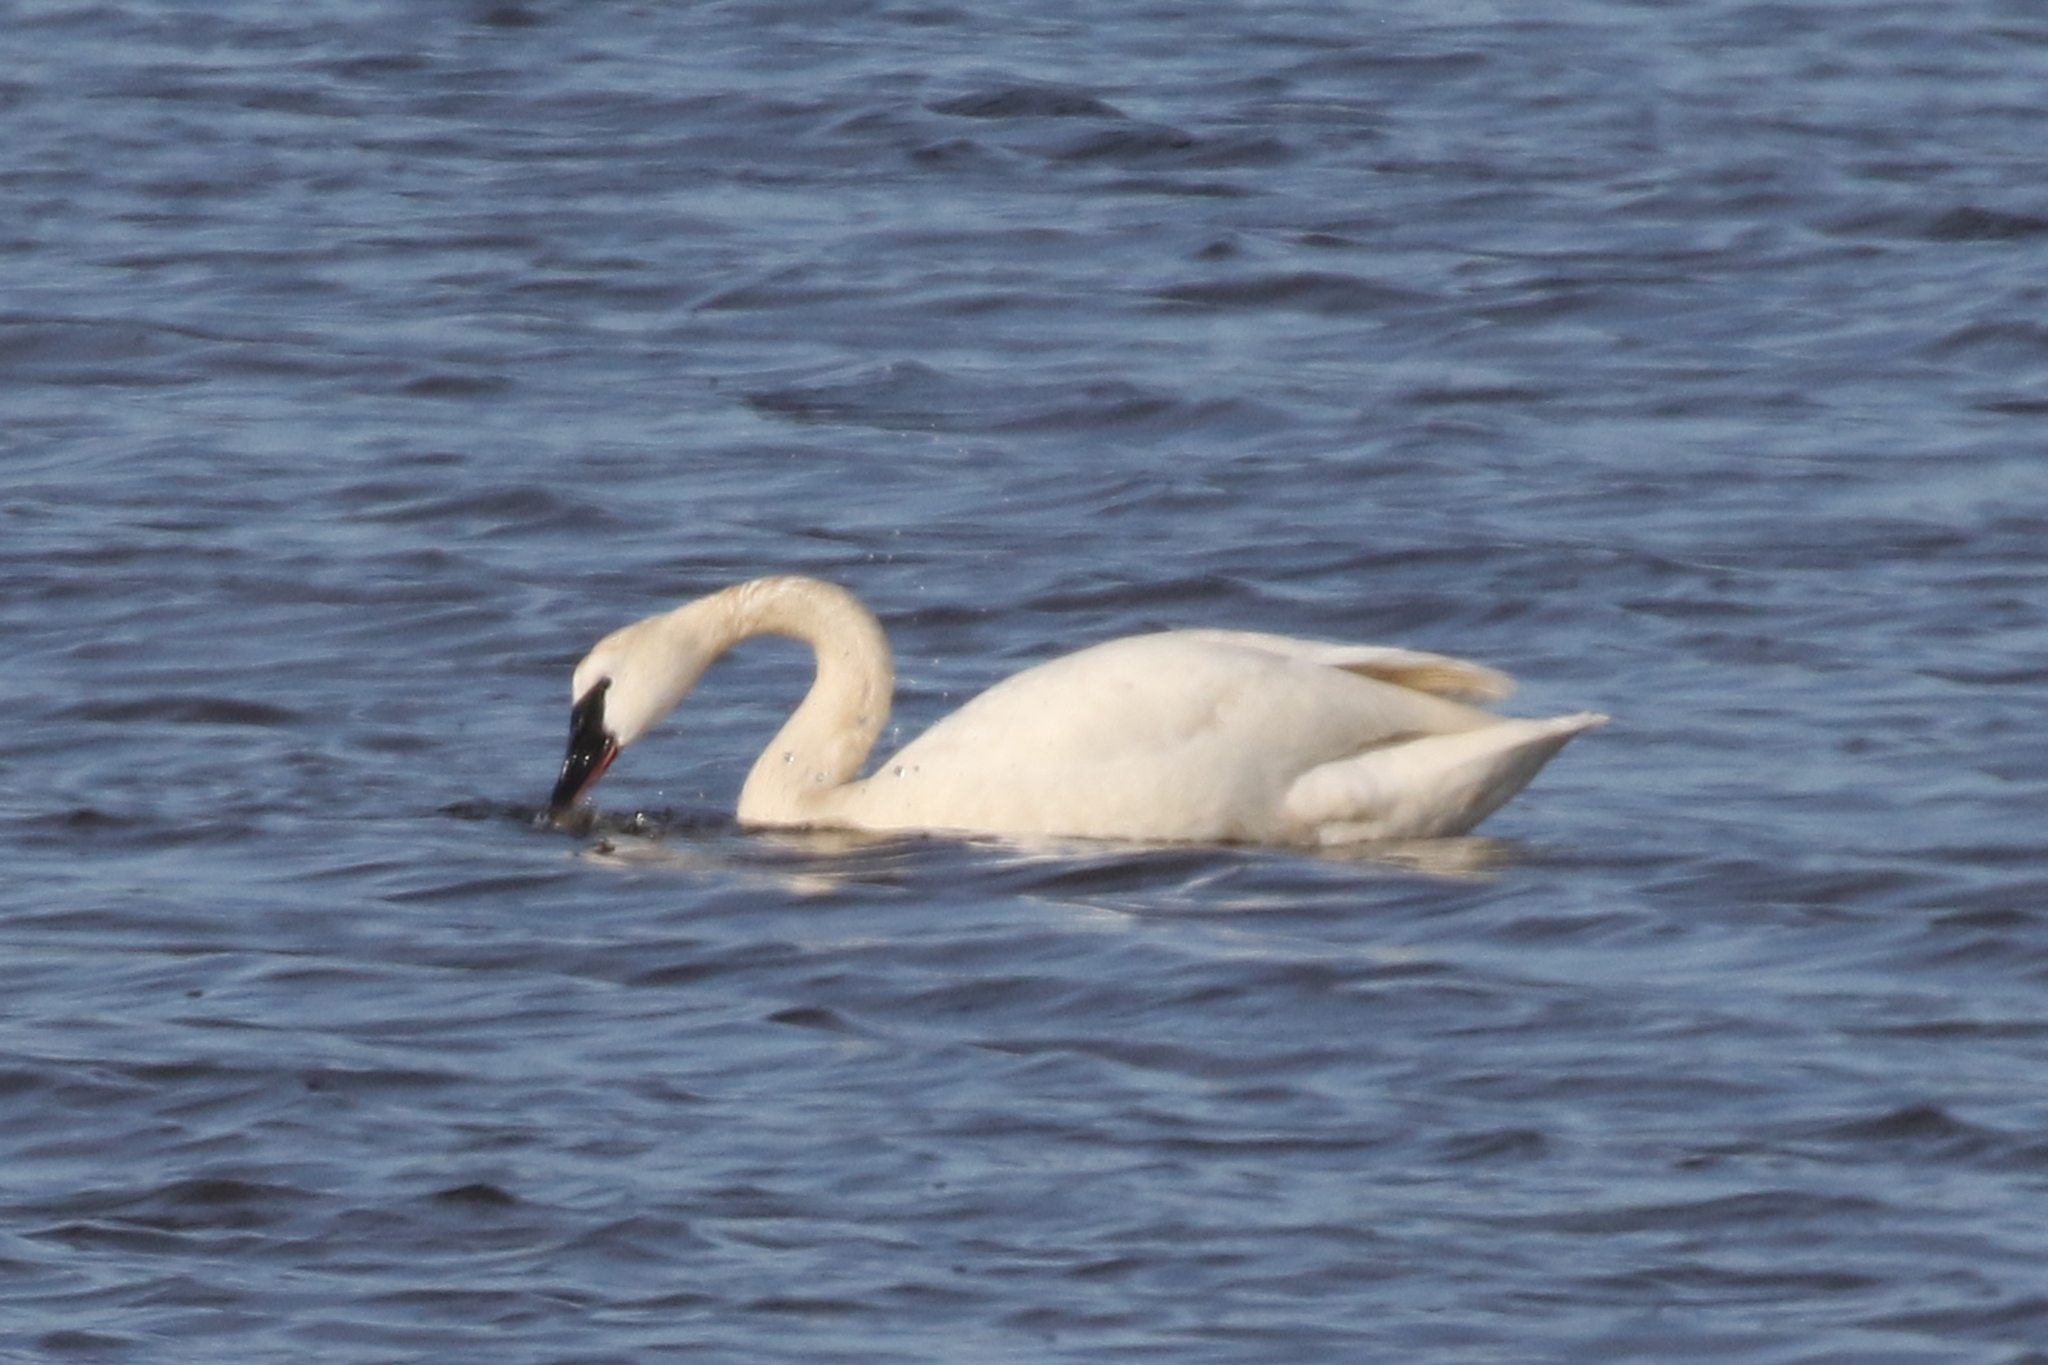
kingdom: Animalia
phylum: Chordata
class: Aves
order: Anseriformes
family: Anatidae
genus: Cygnus
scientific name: Cygnus columbianus
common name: Tundra swan
